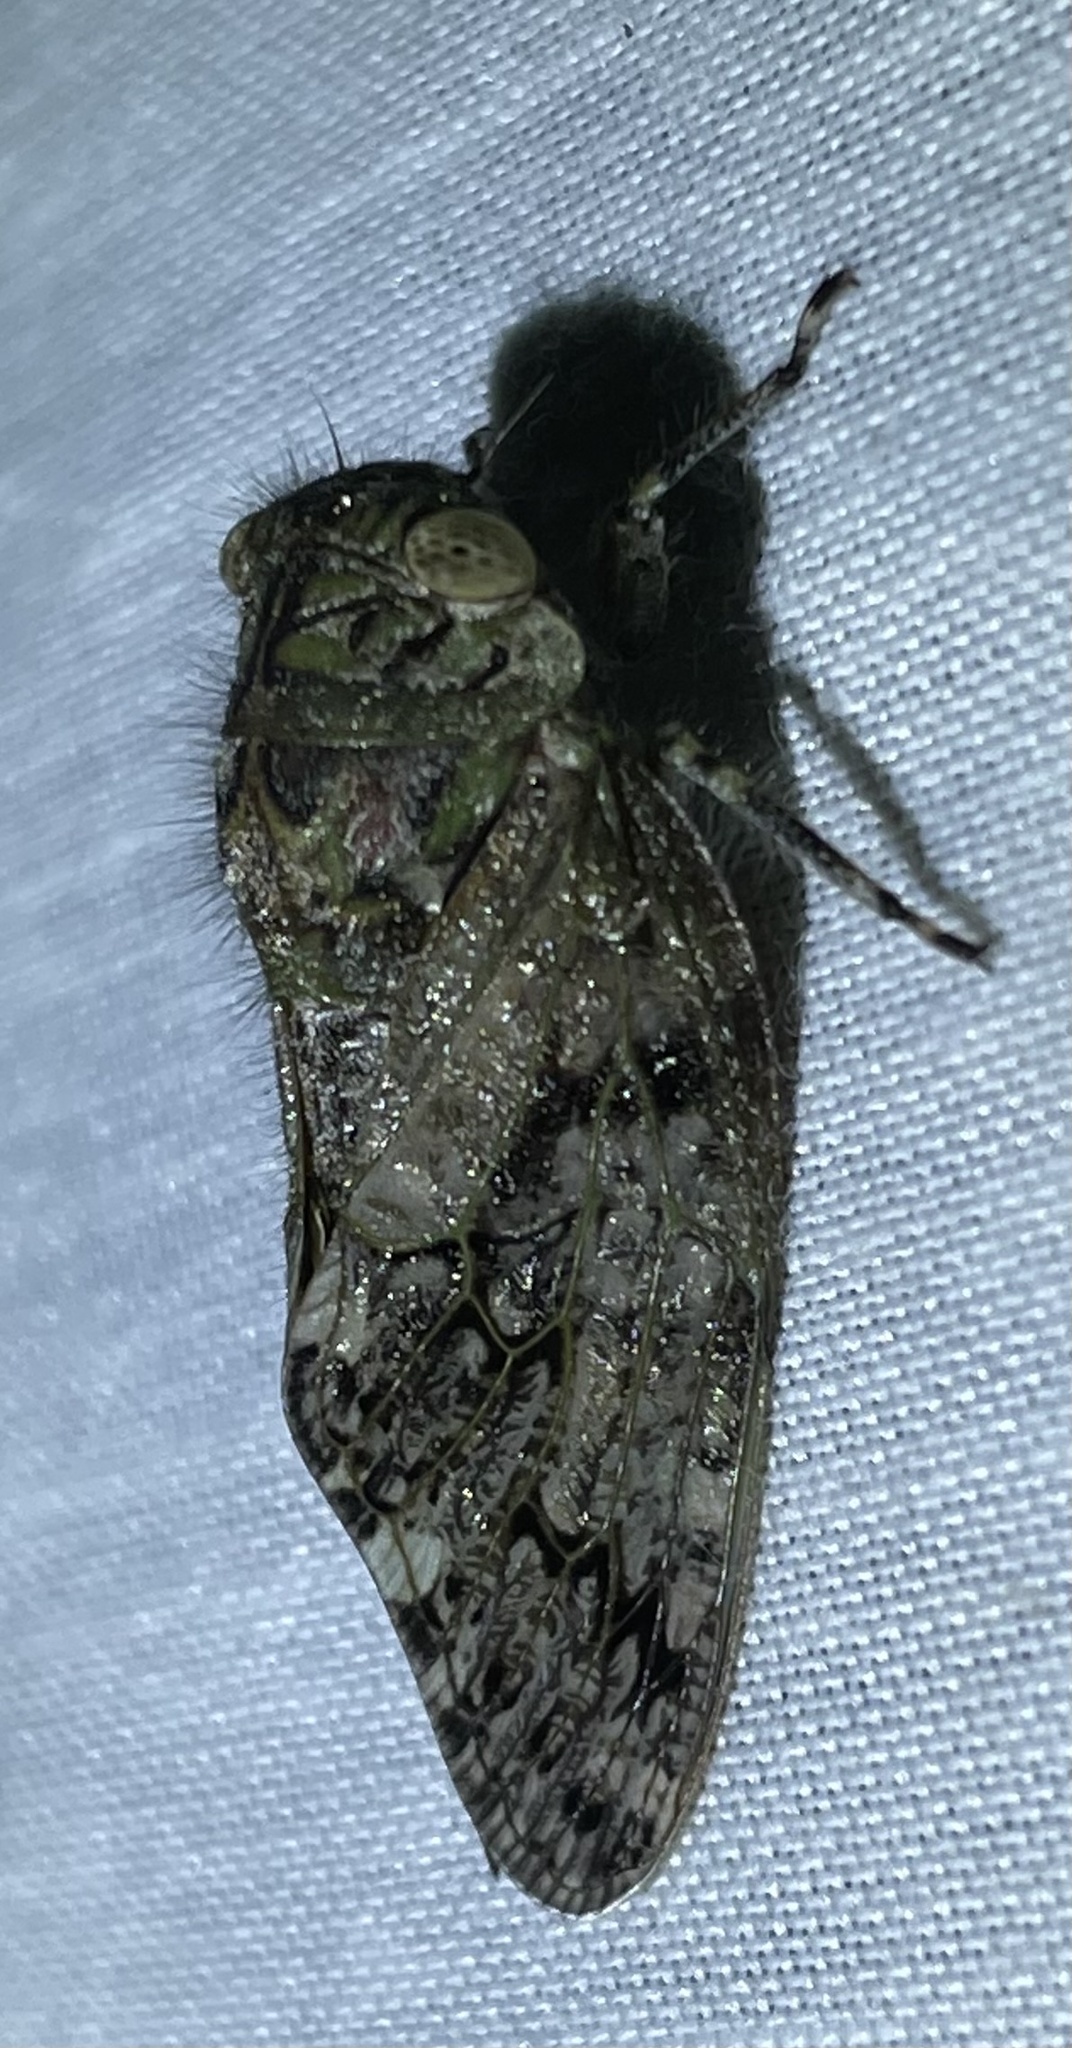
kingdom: Animalia
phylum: Arthropoda
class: Insecta
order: Hemiptera
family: Cicadidae
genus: Platypleura
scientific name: Platypleura haglundi
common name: Variable orangewing cicada
